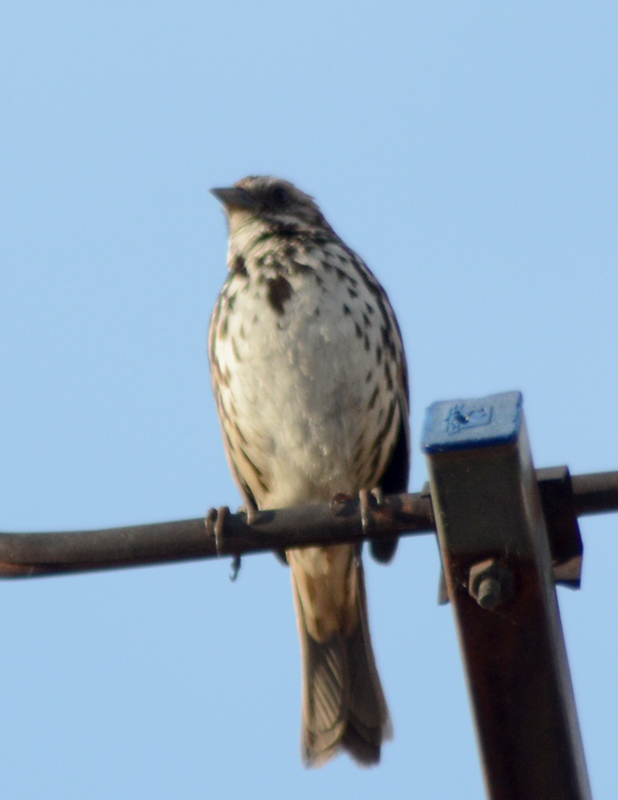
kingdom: Animalia
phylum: Chordata
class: Aves
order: Passeriformes
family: Passerellidae
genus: Melospiza
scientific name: Melospiza melodia
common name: Song sparrow
